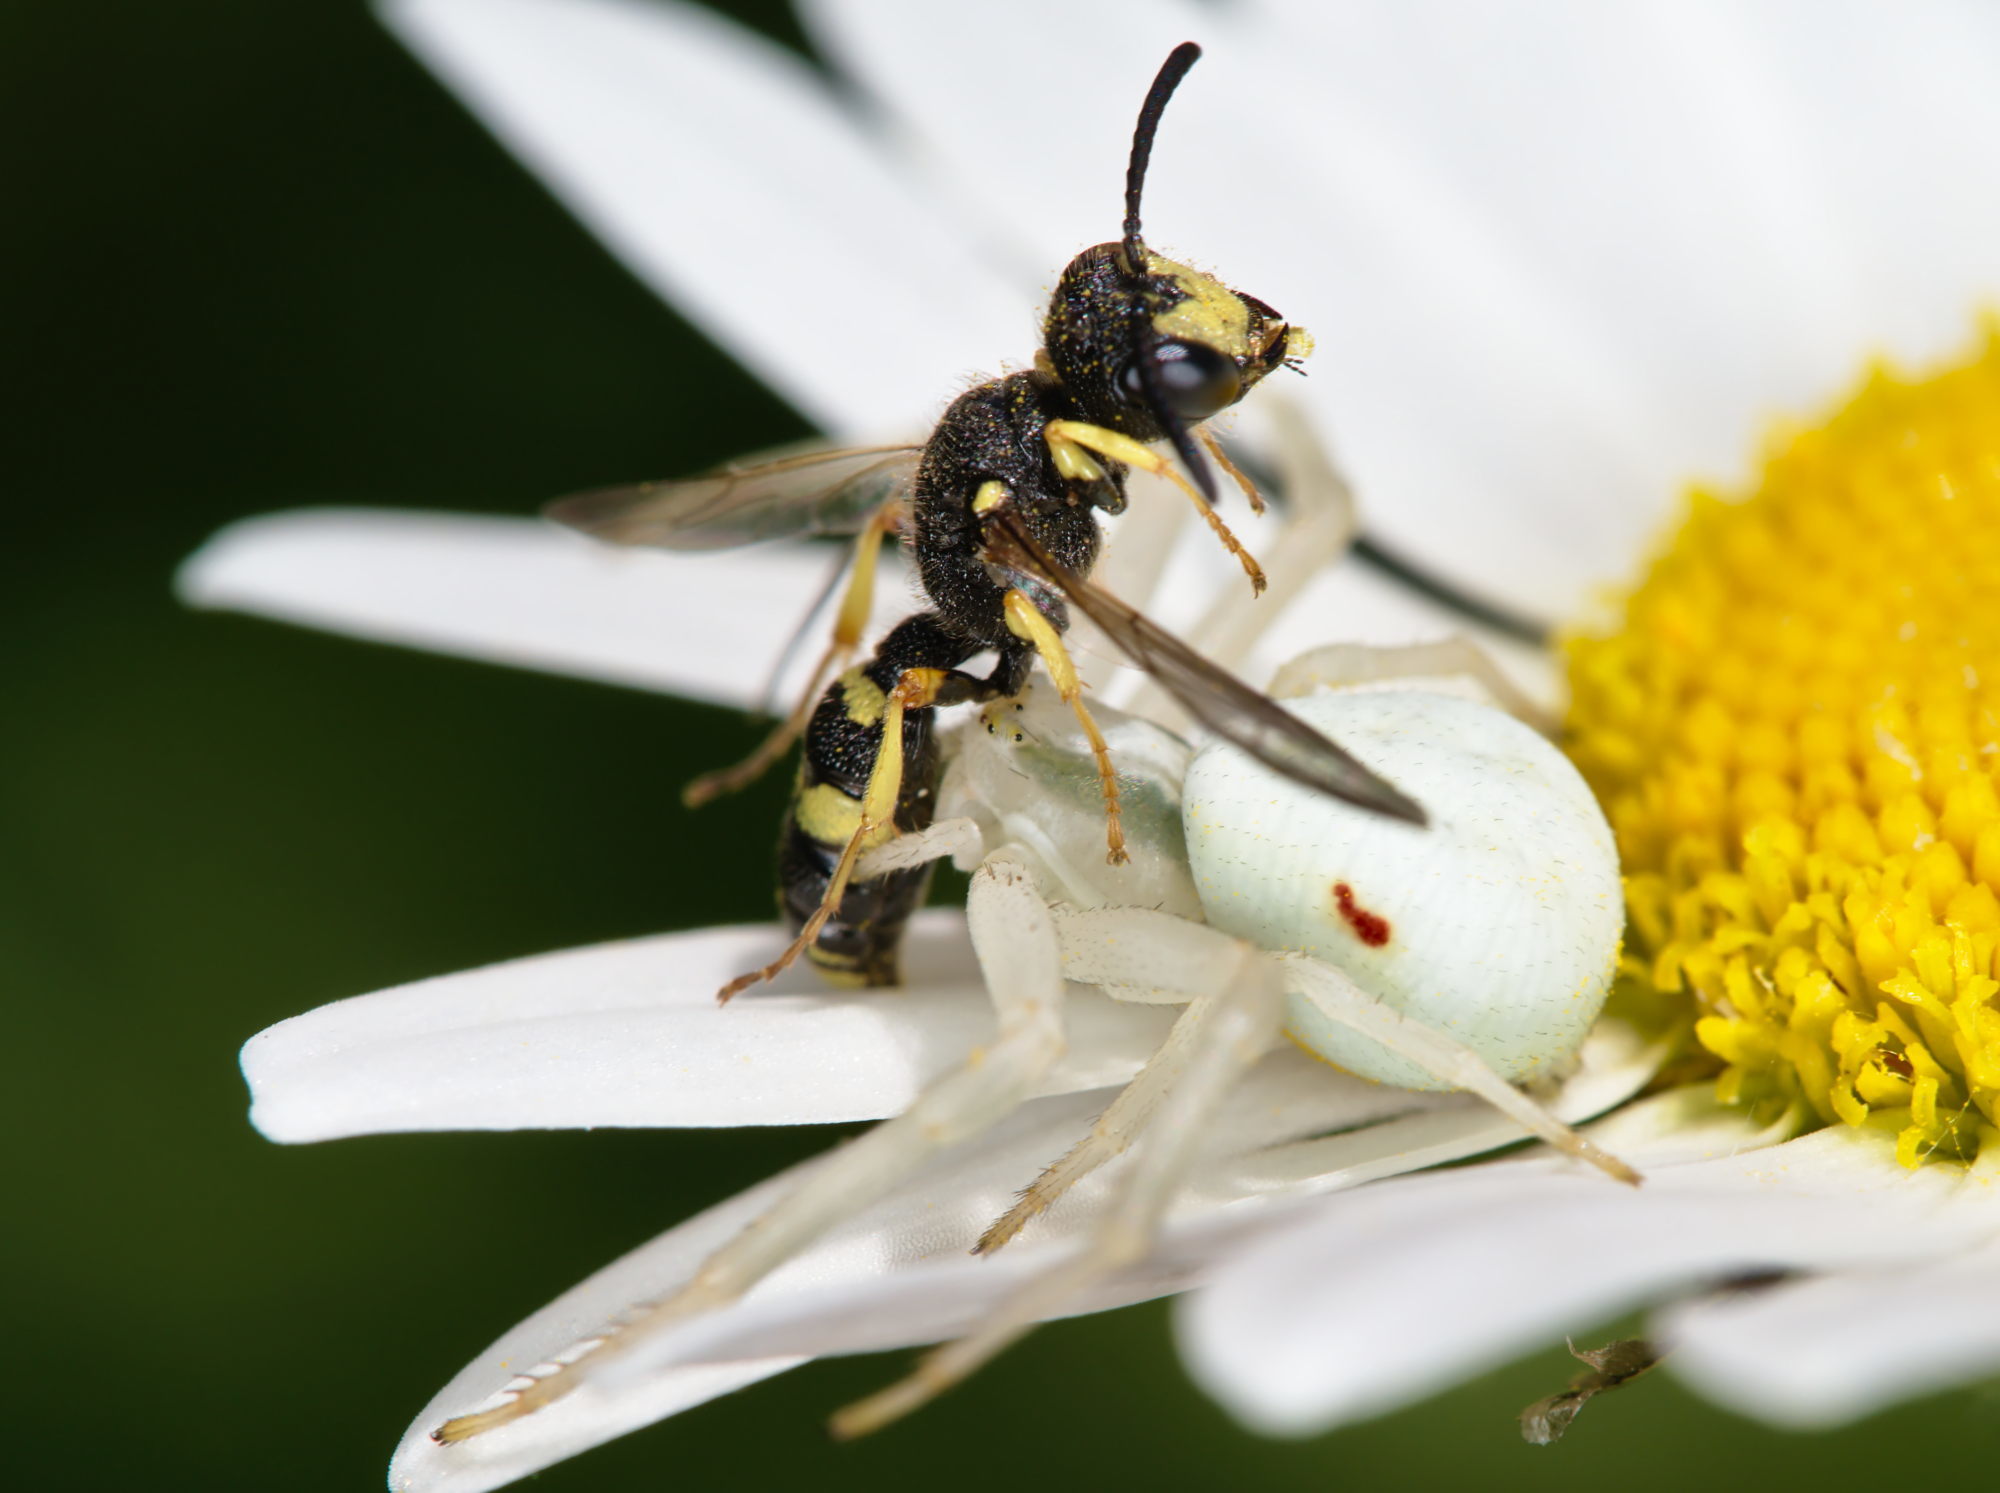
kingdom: Animalia
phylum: Arthropoda
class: Insecta
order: Hymenoptera
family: Crabronidae
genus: Cerceris
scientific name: Cerceris rybyensis
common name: Ornate tailed digger wasp
